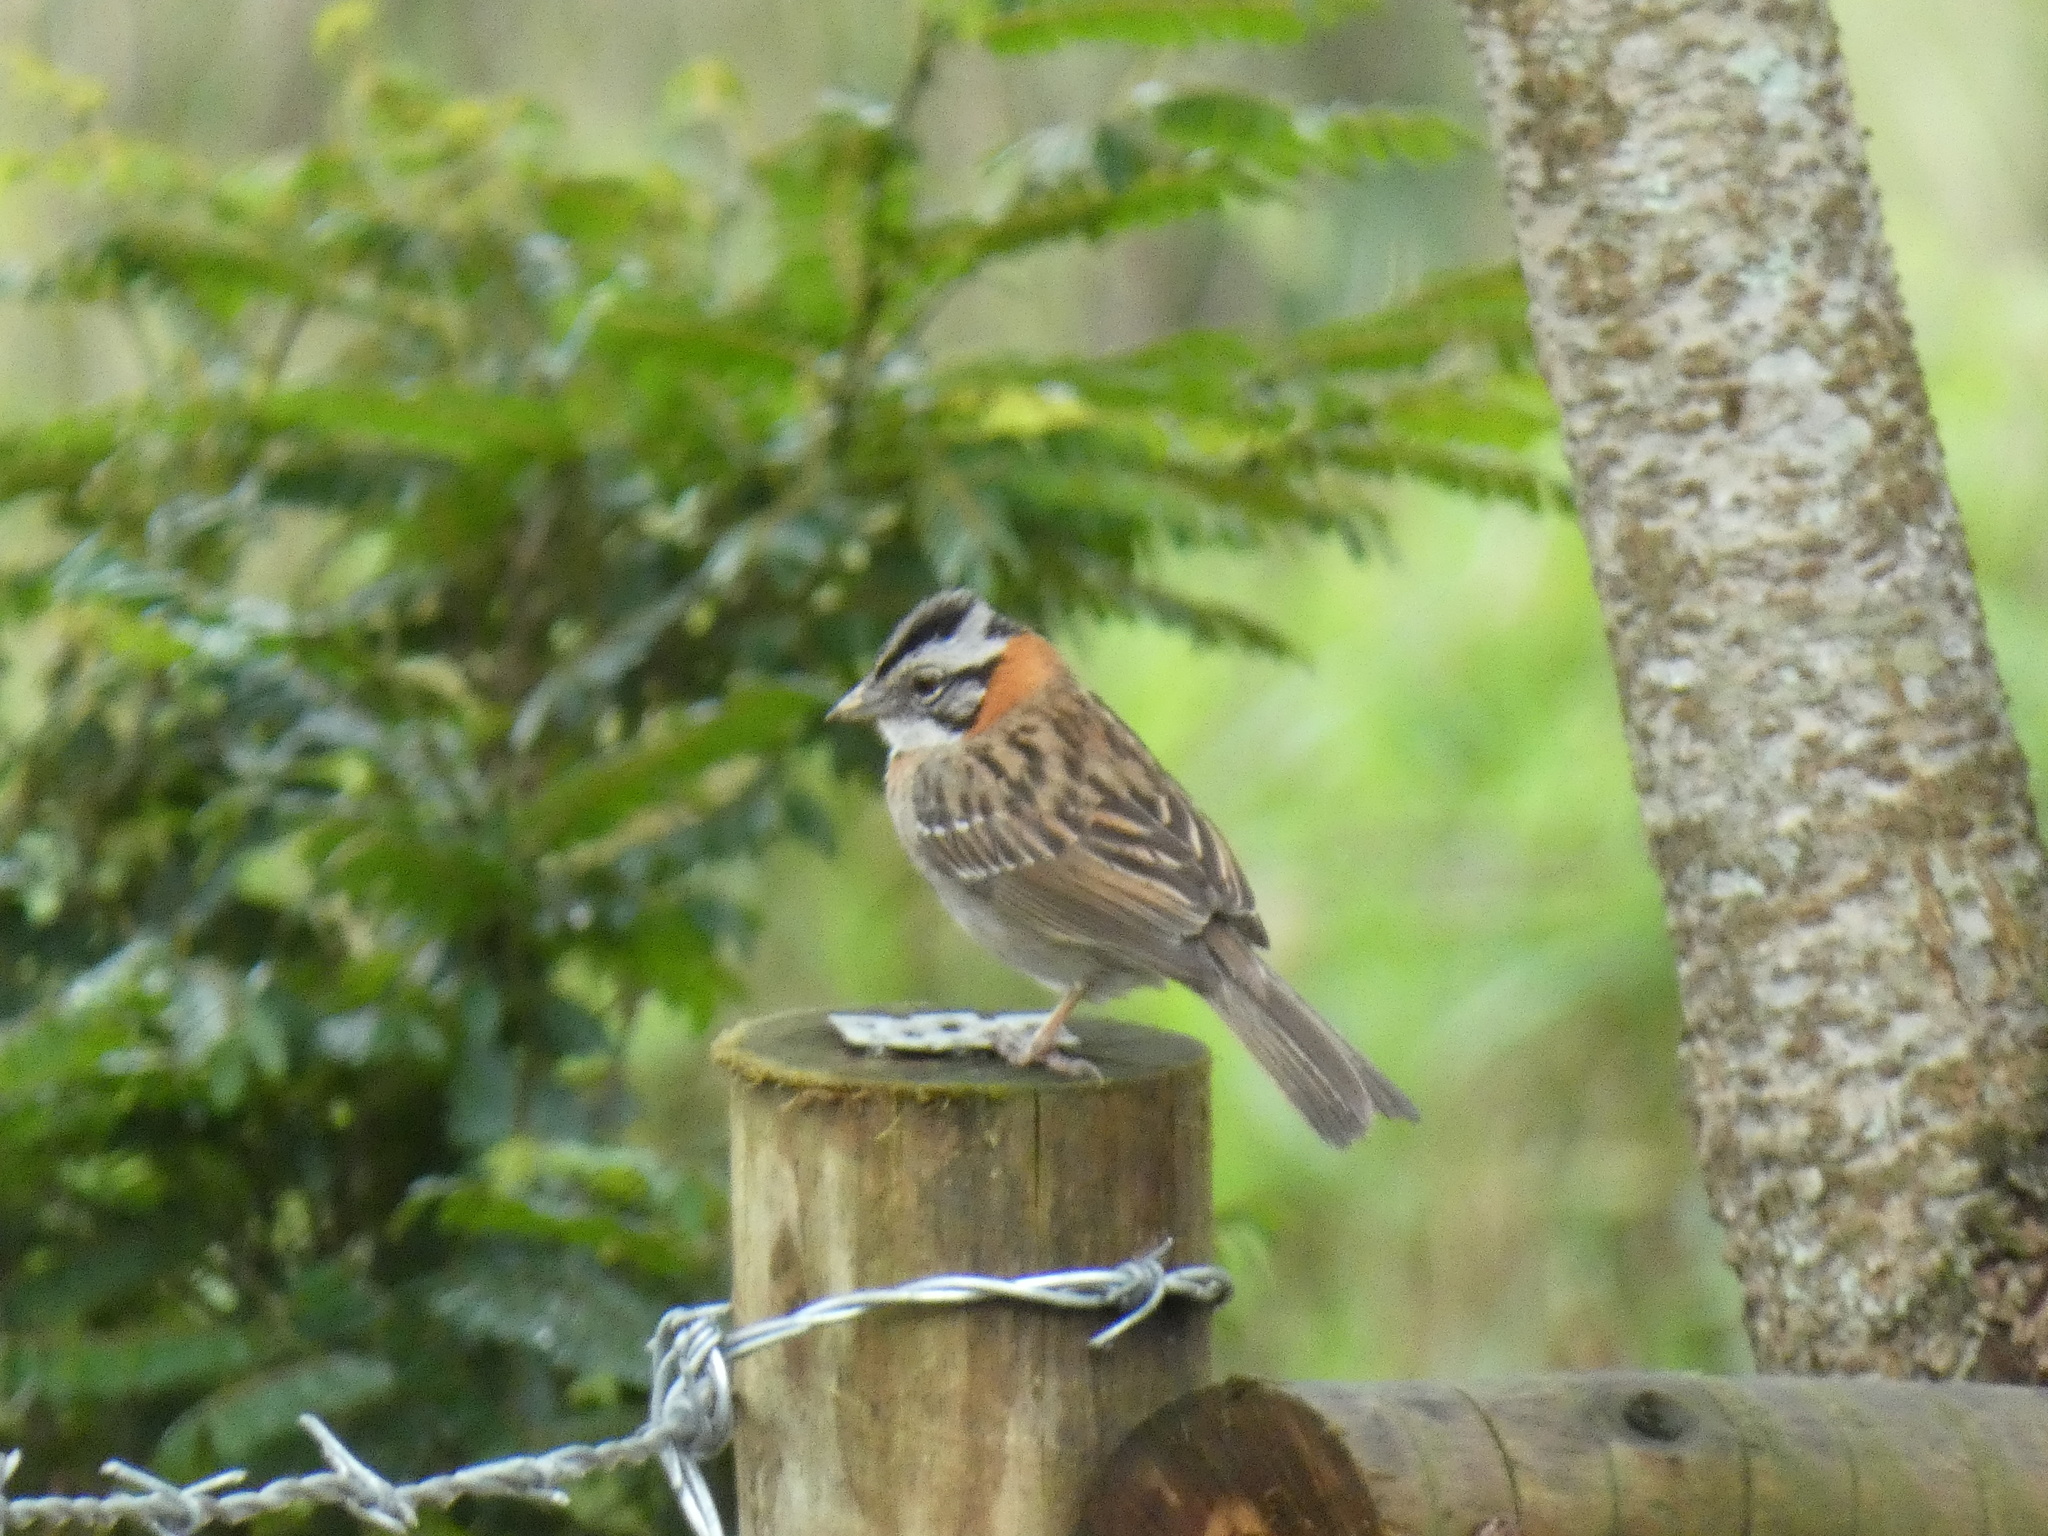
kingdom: Animalia
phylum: Chordata
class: Aves
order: Passeriformes
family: Passerellidae
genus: Zonotrichia
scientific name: Zonotrichia capensis
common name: Rufous-collared sparrow
